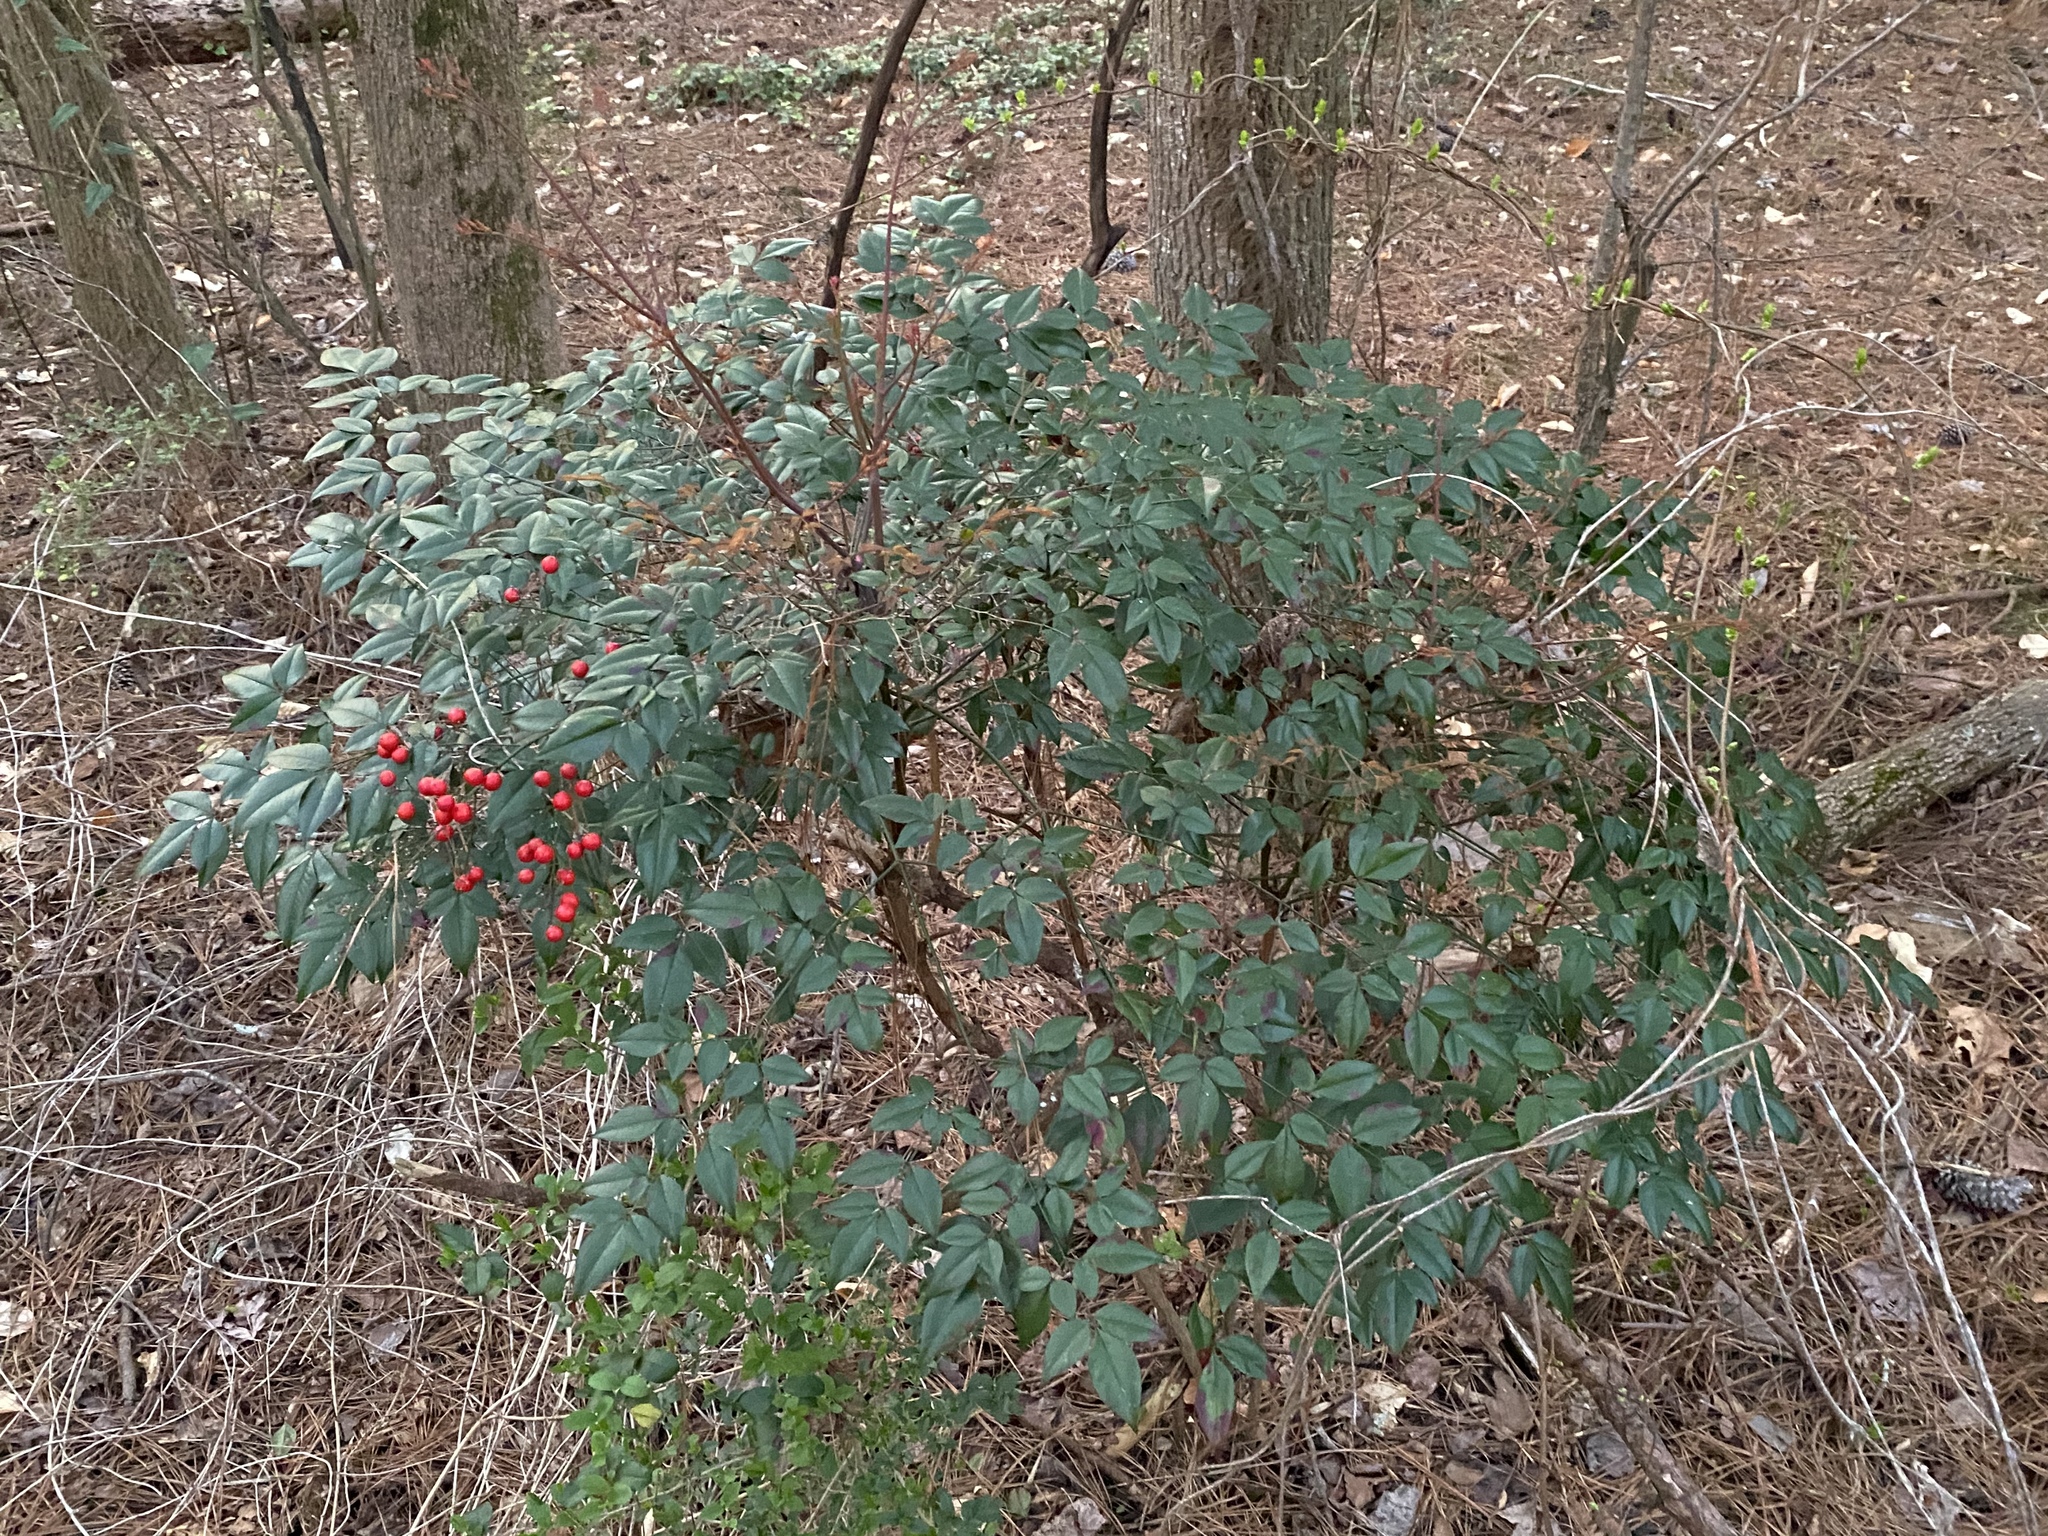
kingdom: Plantae
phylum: Tracheophyta
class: Magnoliopsida
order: Ranunculales
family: Berberidaceae
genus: Nandina
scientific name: Nandina domestica
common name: Sacred bamboo
